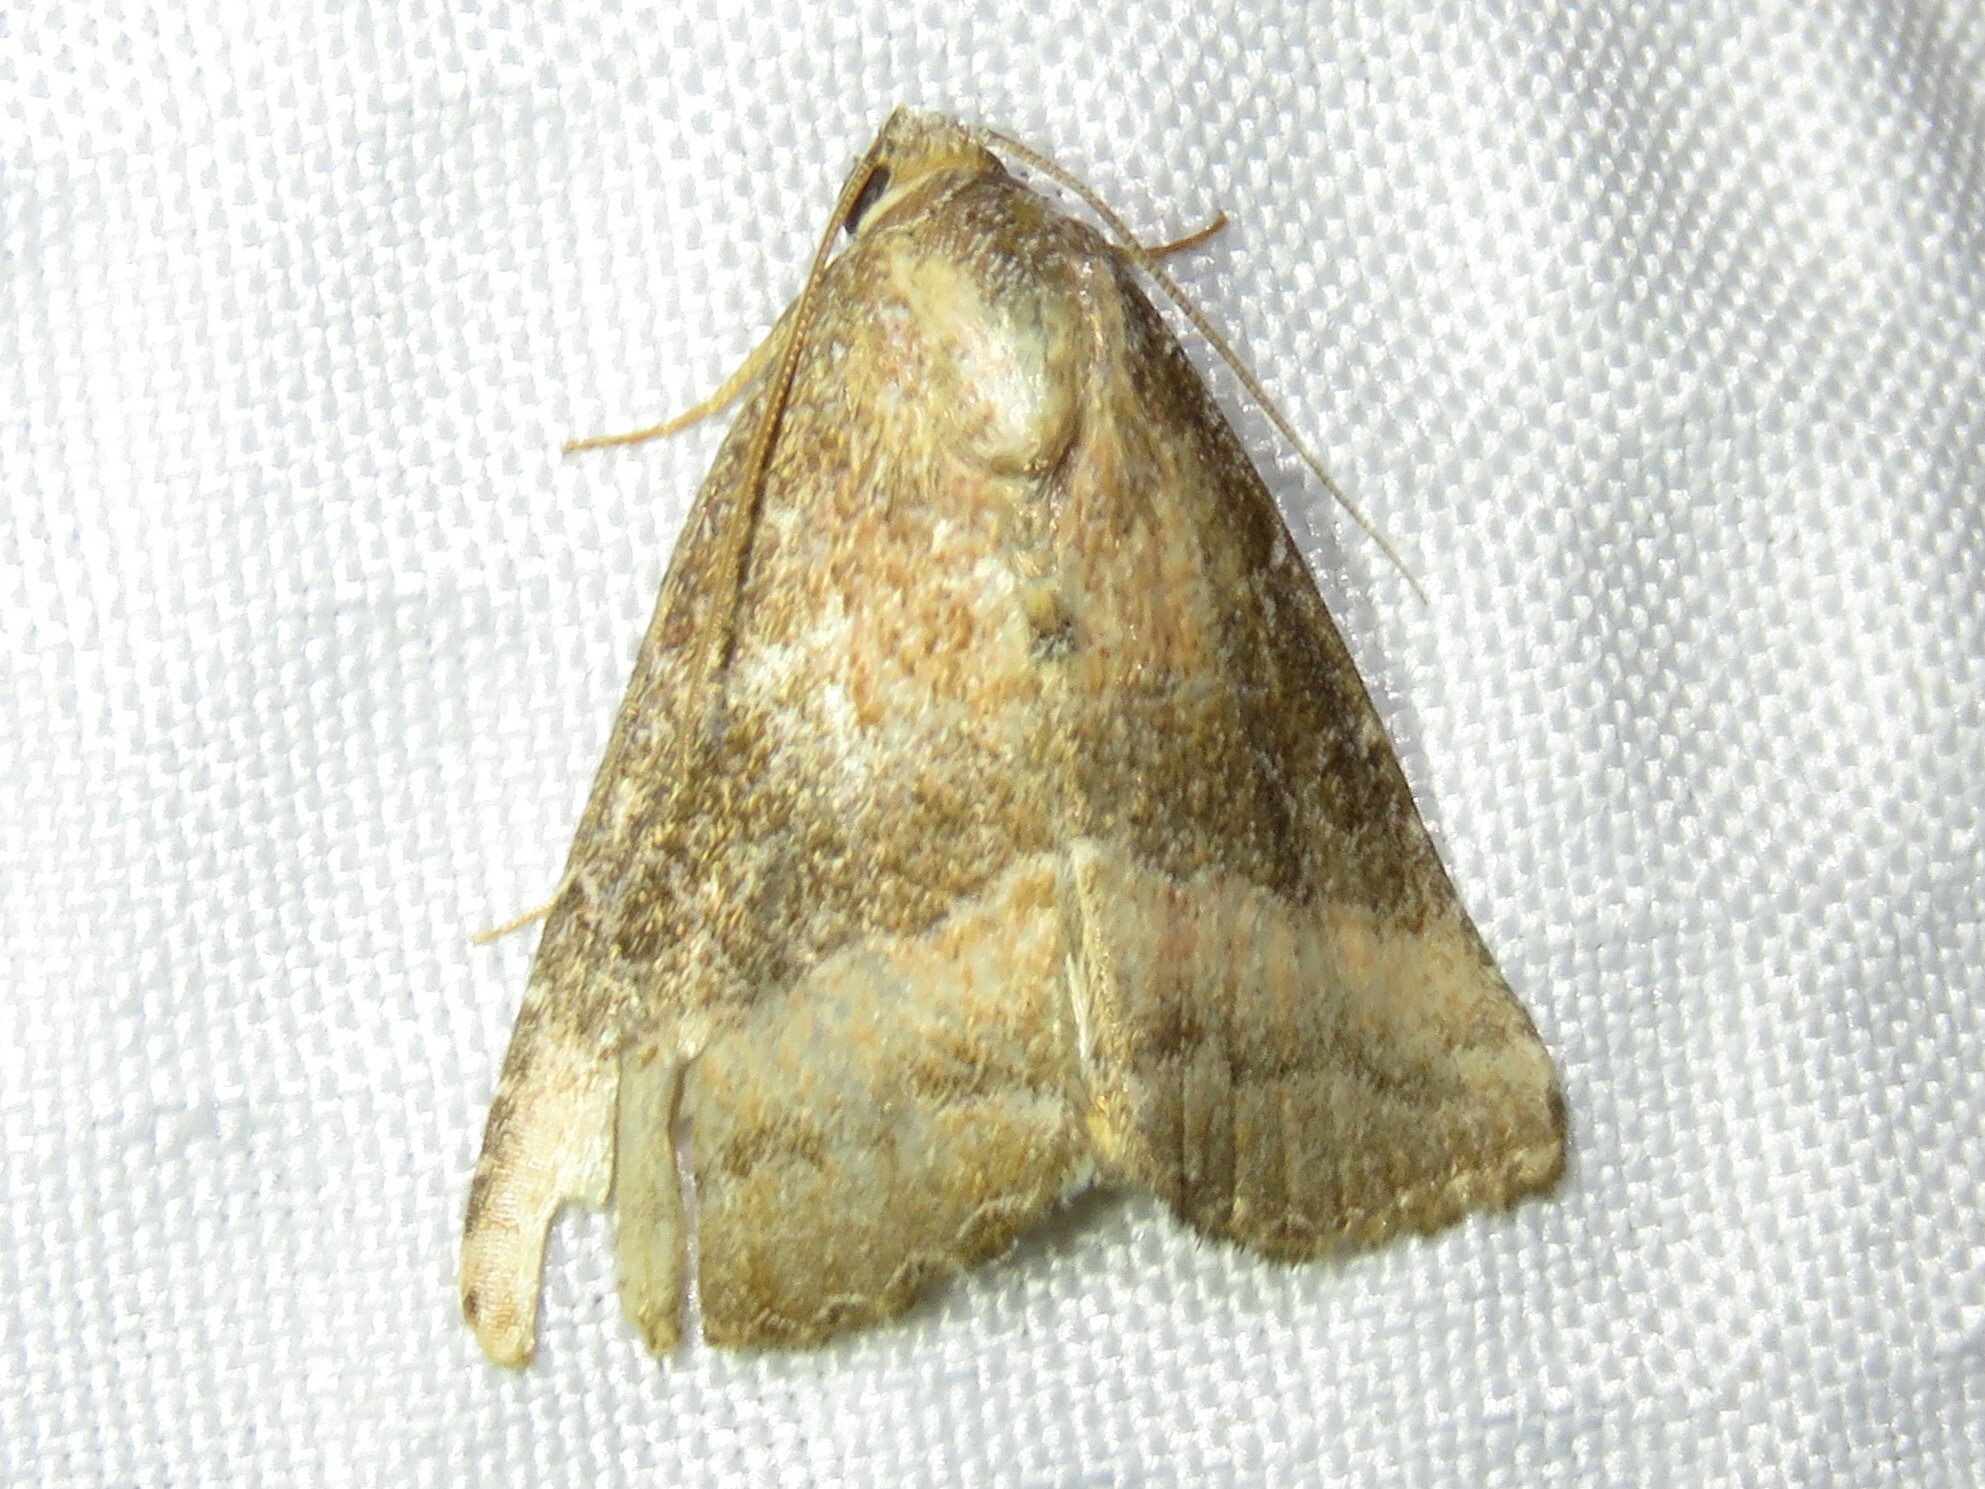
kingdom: Animalia
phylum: Arthropoda
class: Insecta
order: Lepidoptera
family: Noctuidae
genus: Ogdoconta
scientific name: Ogdoconta cinereola
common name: Common pinkband
